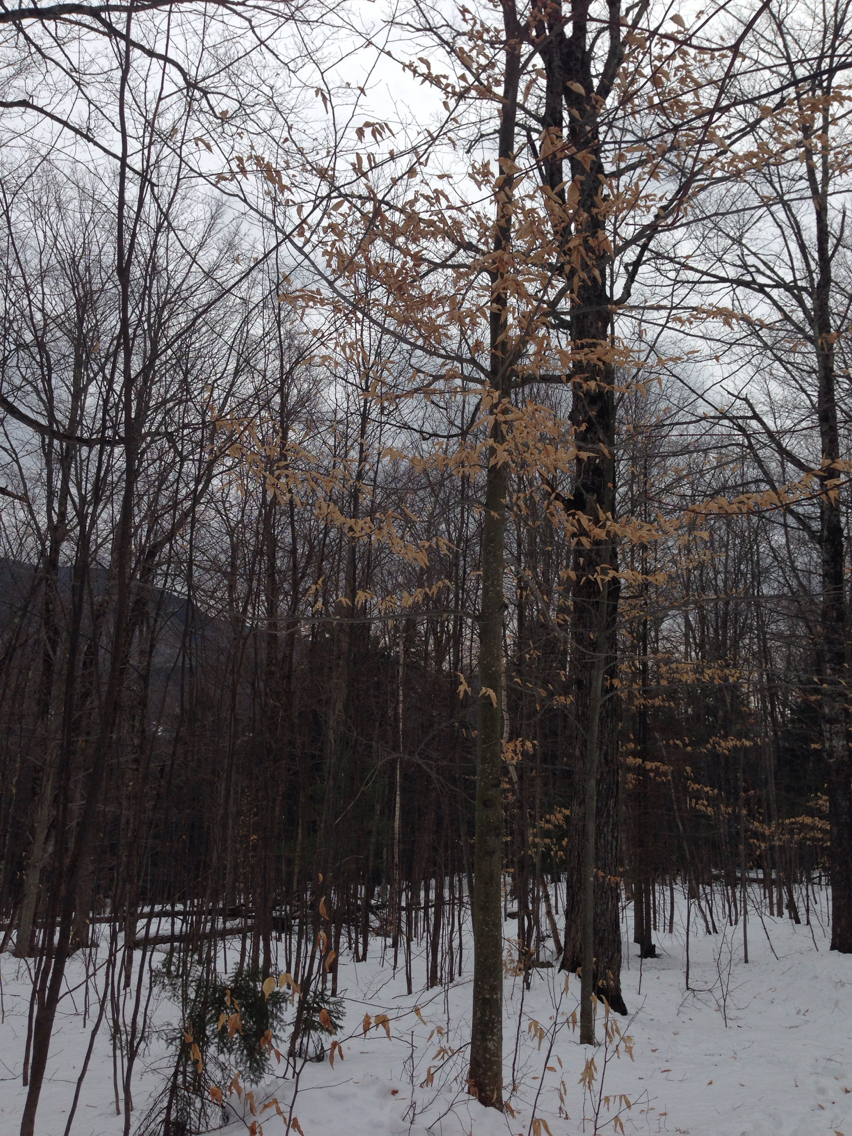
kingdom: Plantae
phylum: Tracheophyta
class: Magnoliopsida
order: Fagales
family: Fagaceae
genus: Fagus
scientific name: Fagus grandifolia
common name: American beech
